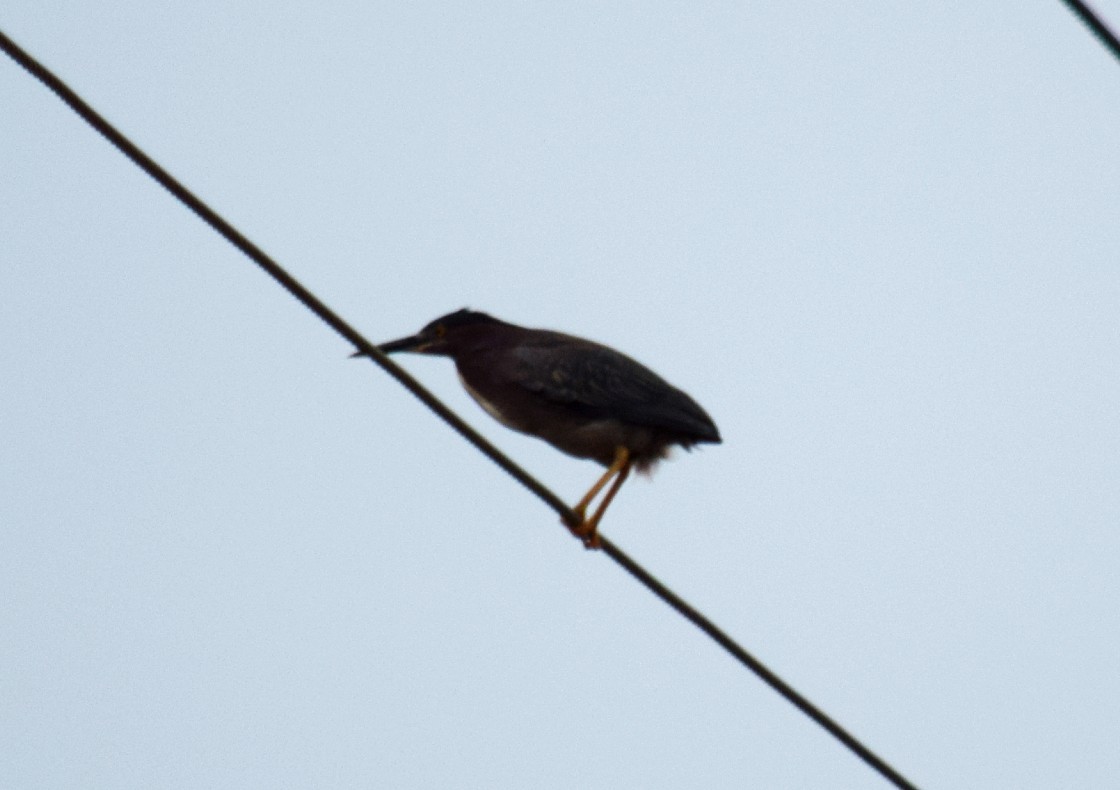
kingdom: Animalia
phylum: Chordata
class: Aves
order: Pelecaniformes
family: Ardeidae
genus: Butorides
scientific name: Butorides virescens
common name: Green heron
